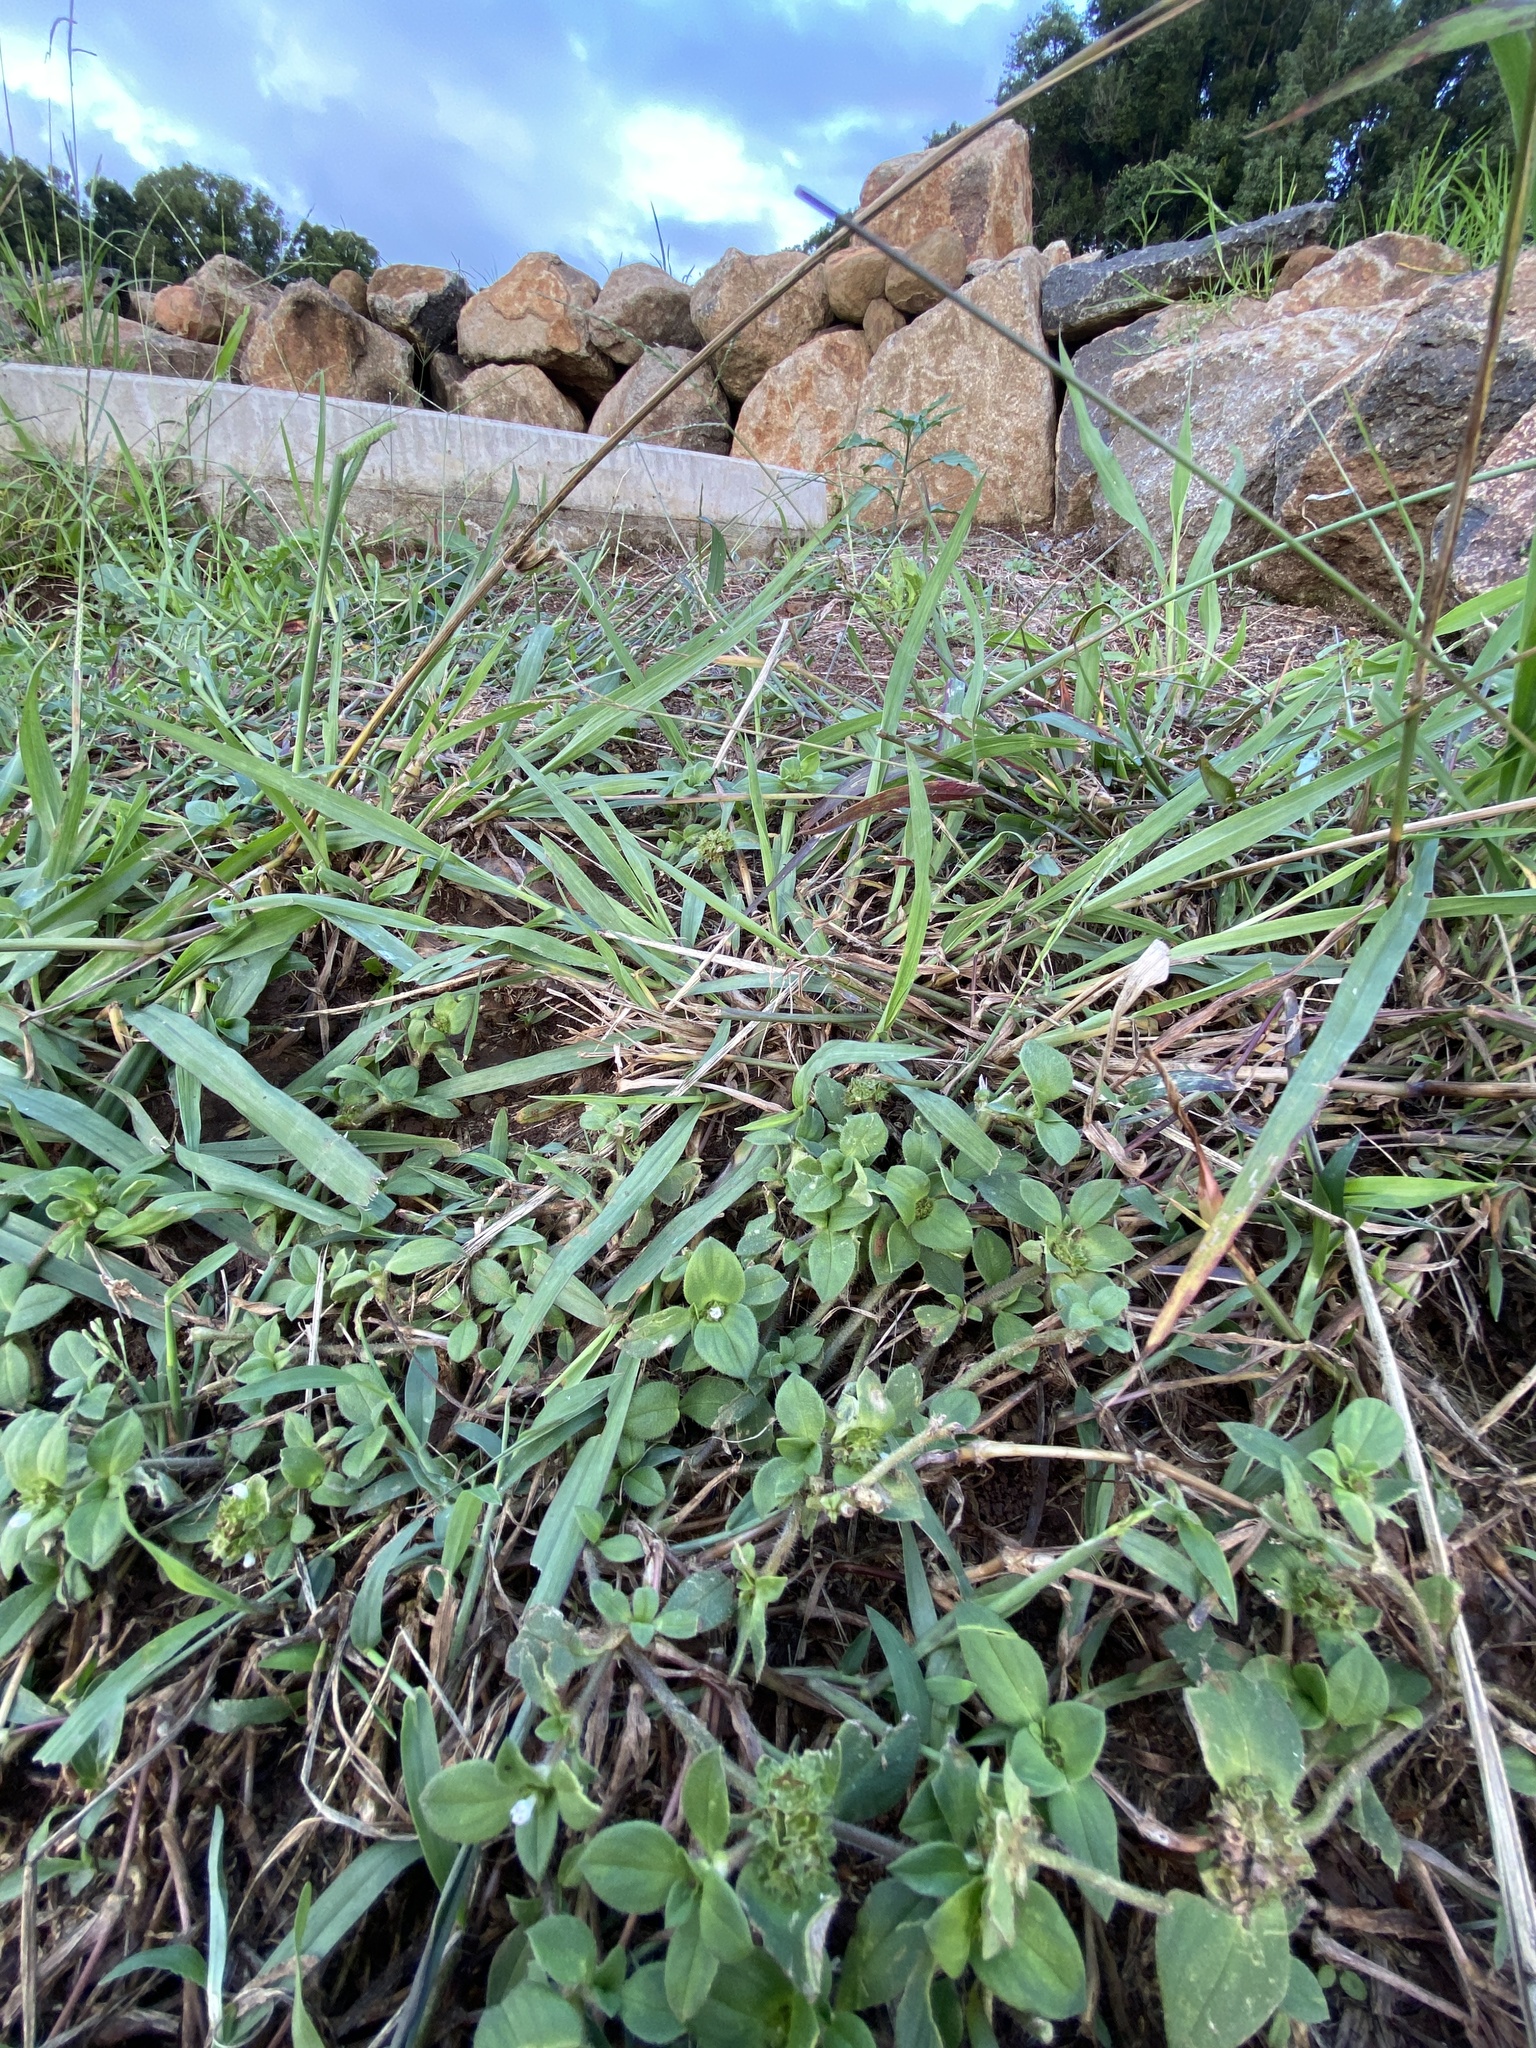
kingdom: Plantae
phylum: Tracheophyta
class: Magnoliopsida
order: Gentianales
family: Rubiaceae
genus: Richardia
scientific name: Richardia brasiliensis
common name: Tropical mexican clover
